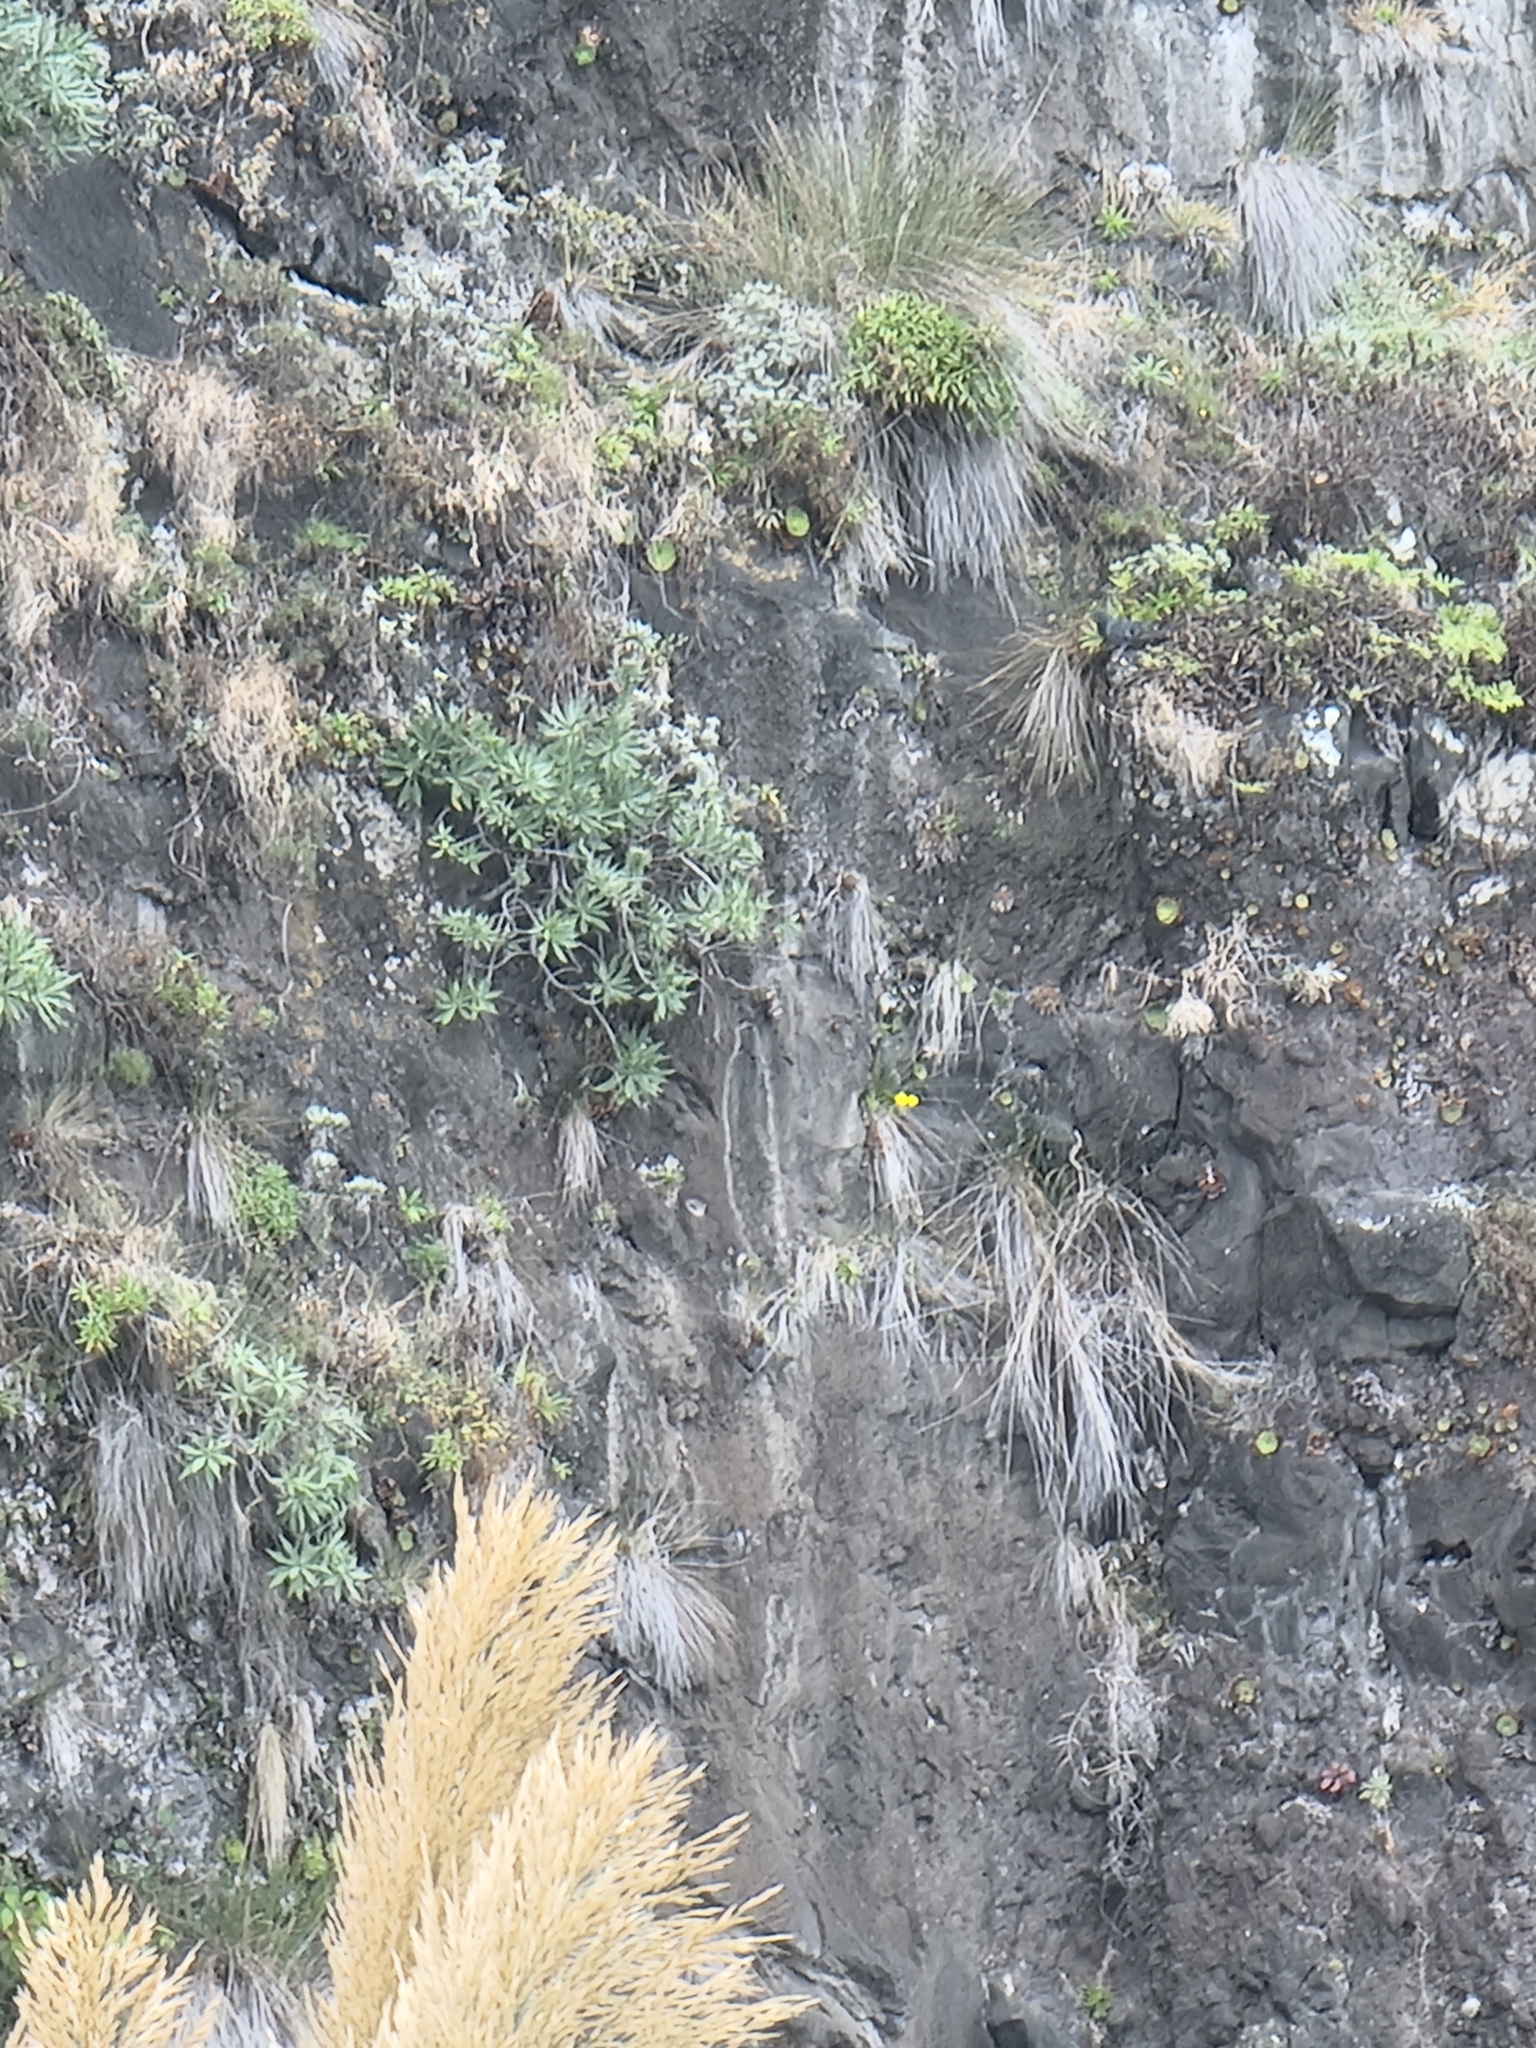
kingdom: Plantae
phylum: Tracheophyta
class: Magnoliopsida
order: Boraginales
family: Boraginaceae
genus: Echium
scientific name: Echium nervosum
